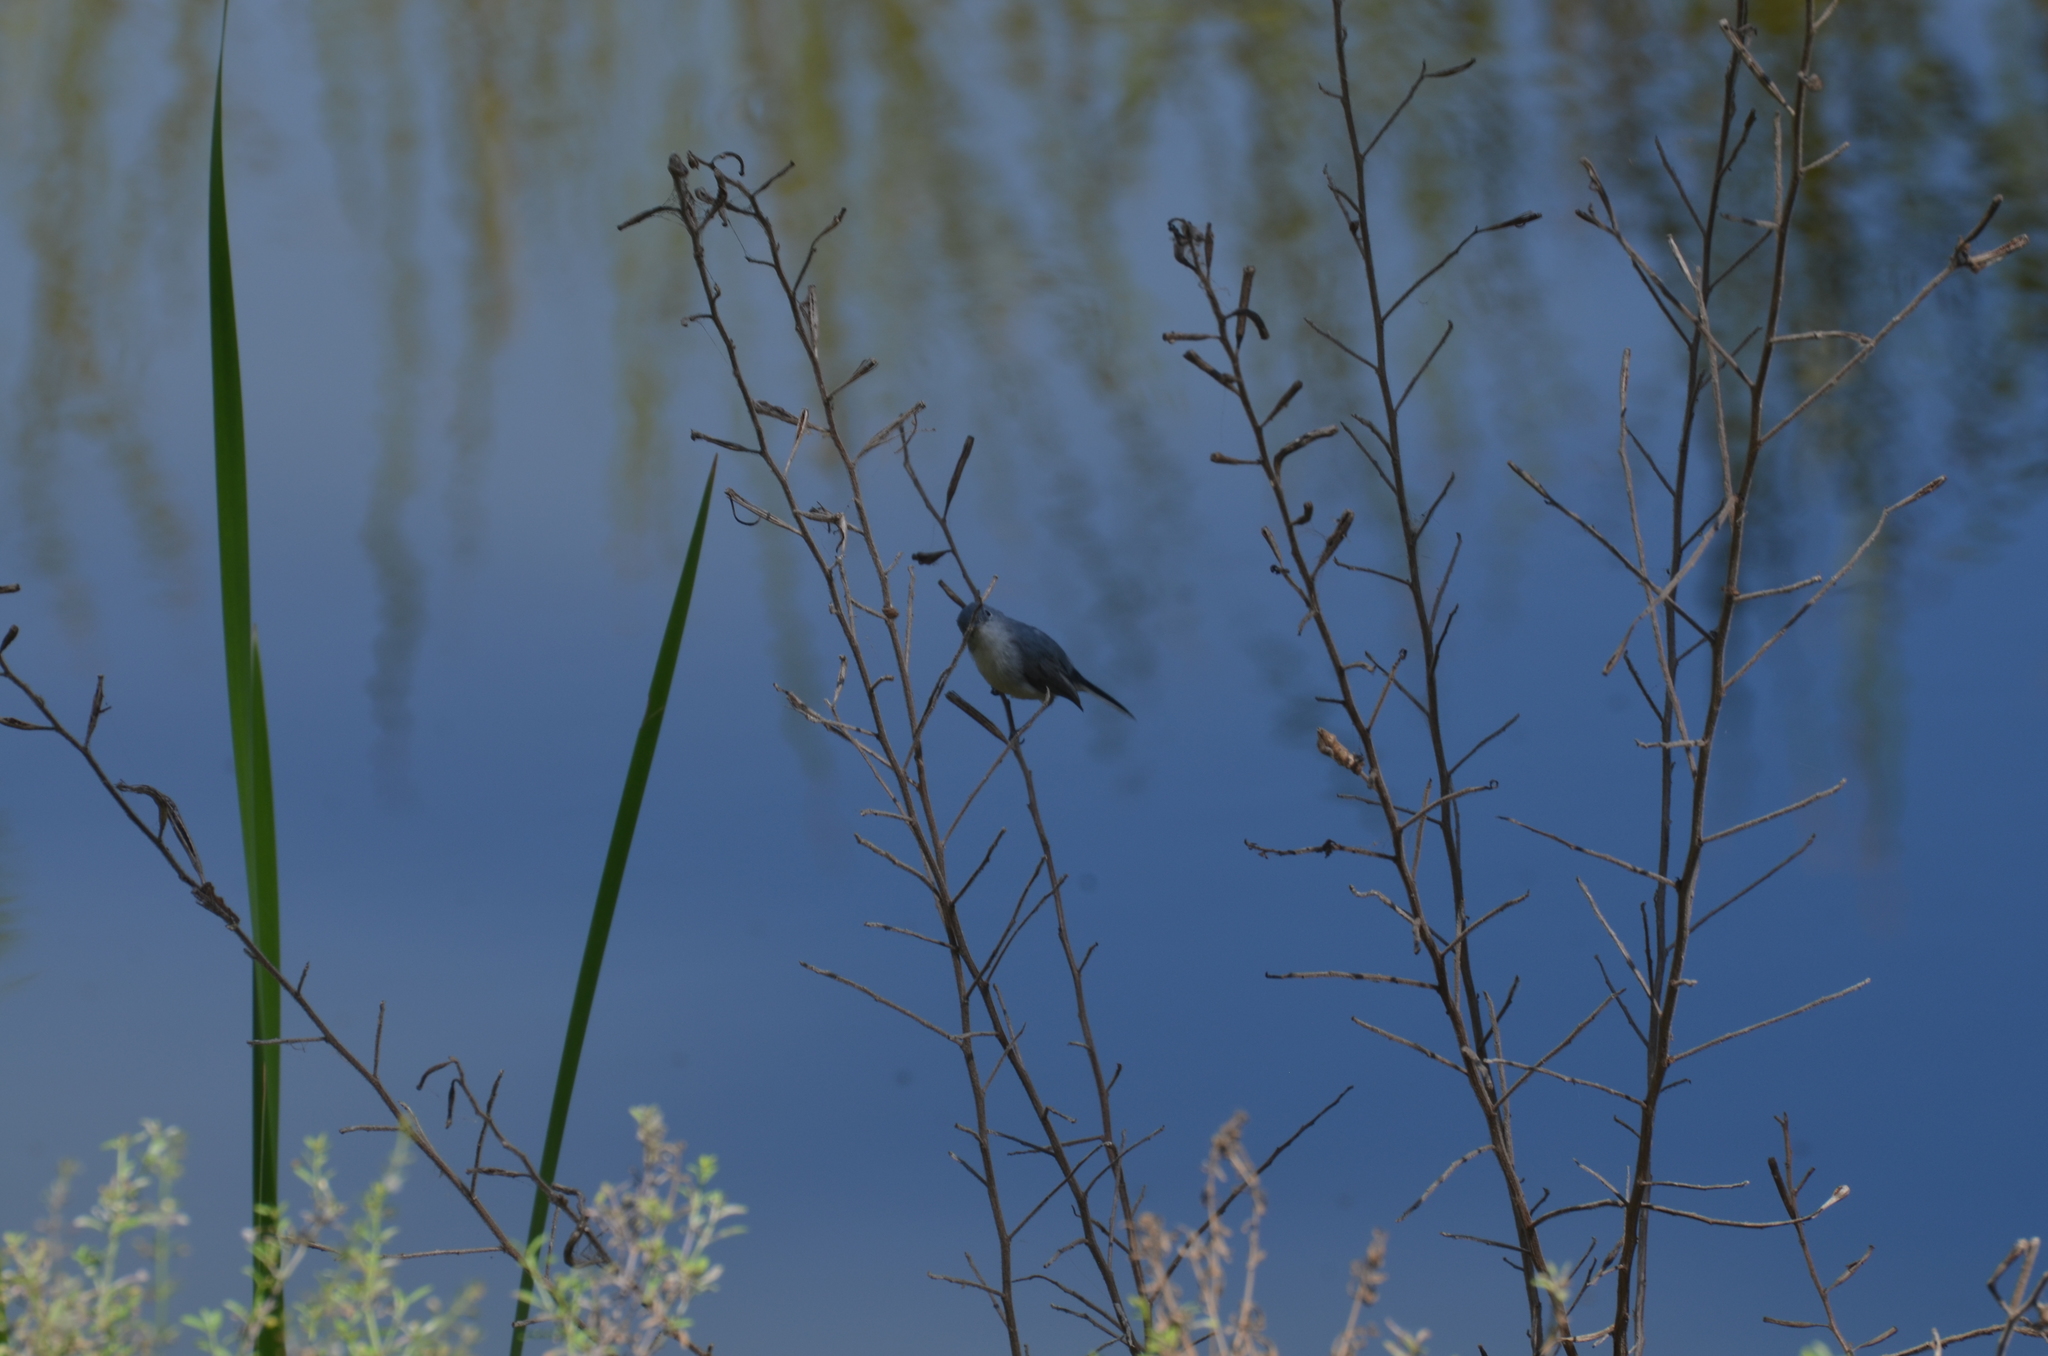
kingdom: Animalia
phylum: Chordata
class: Aves
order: Passeriformes
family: Polioptilidae
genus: Polioptila
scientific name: Polioptila caerulea
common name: Blue-gray gnatcatcher
